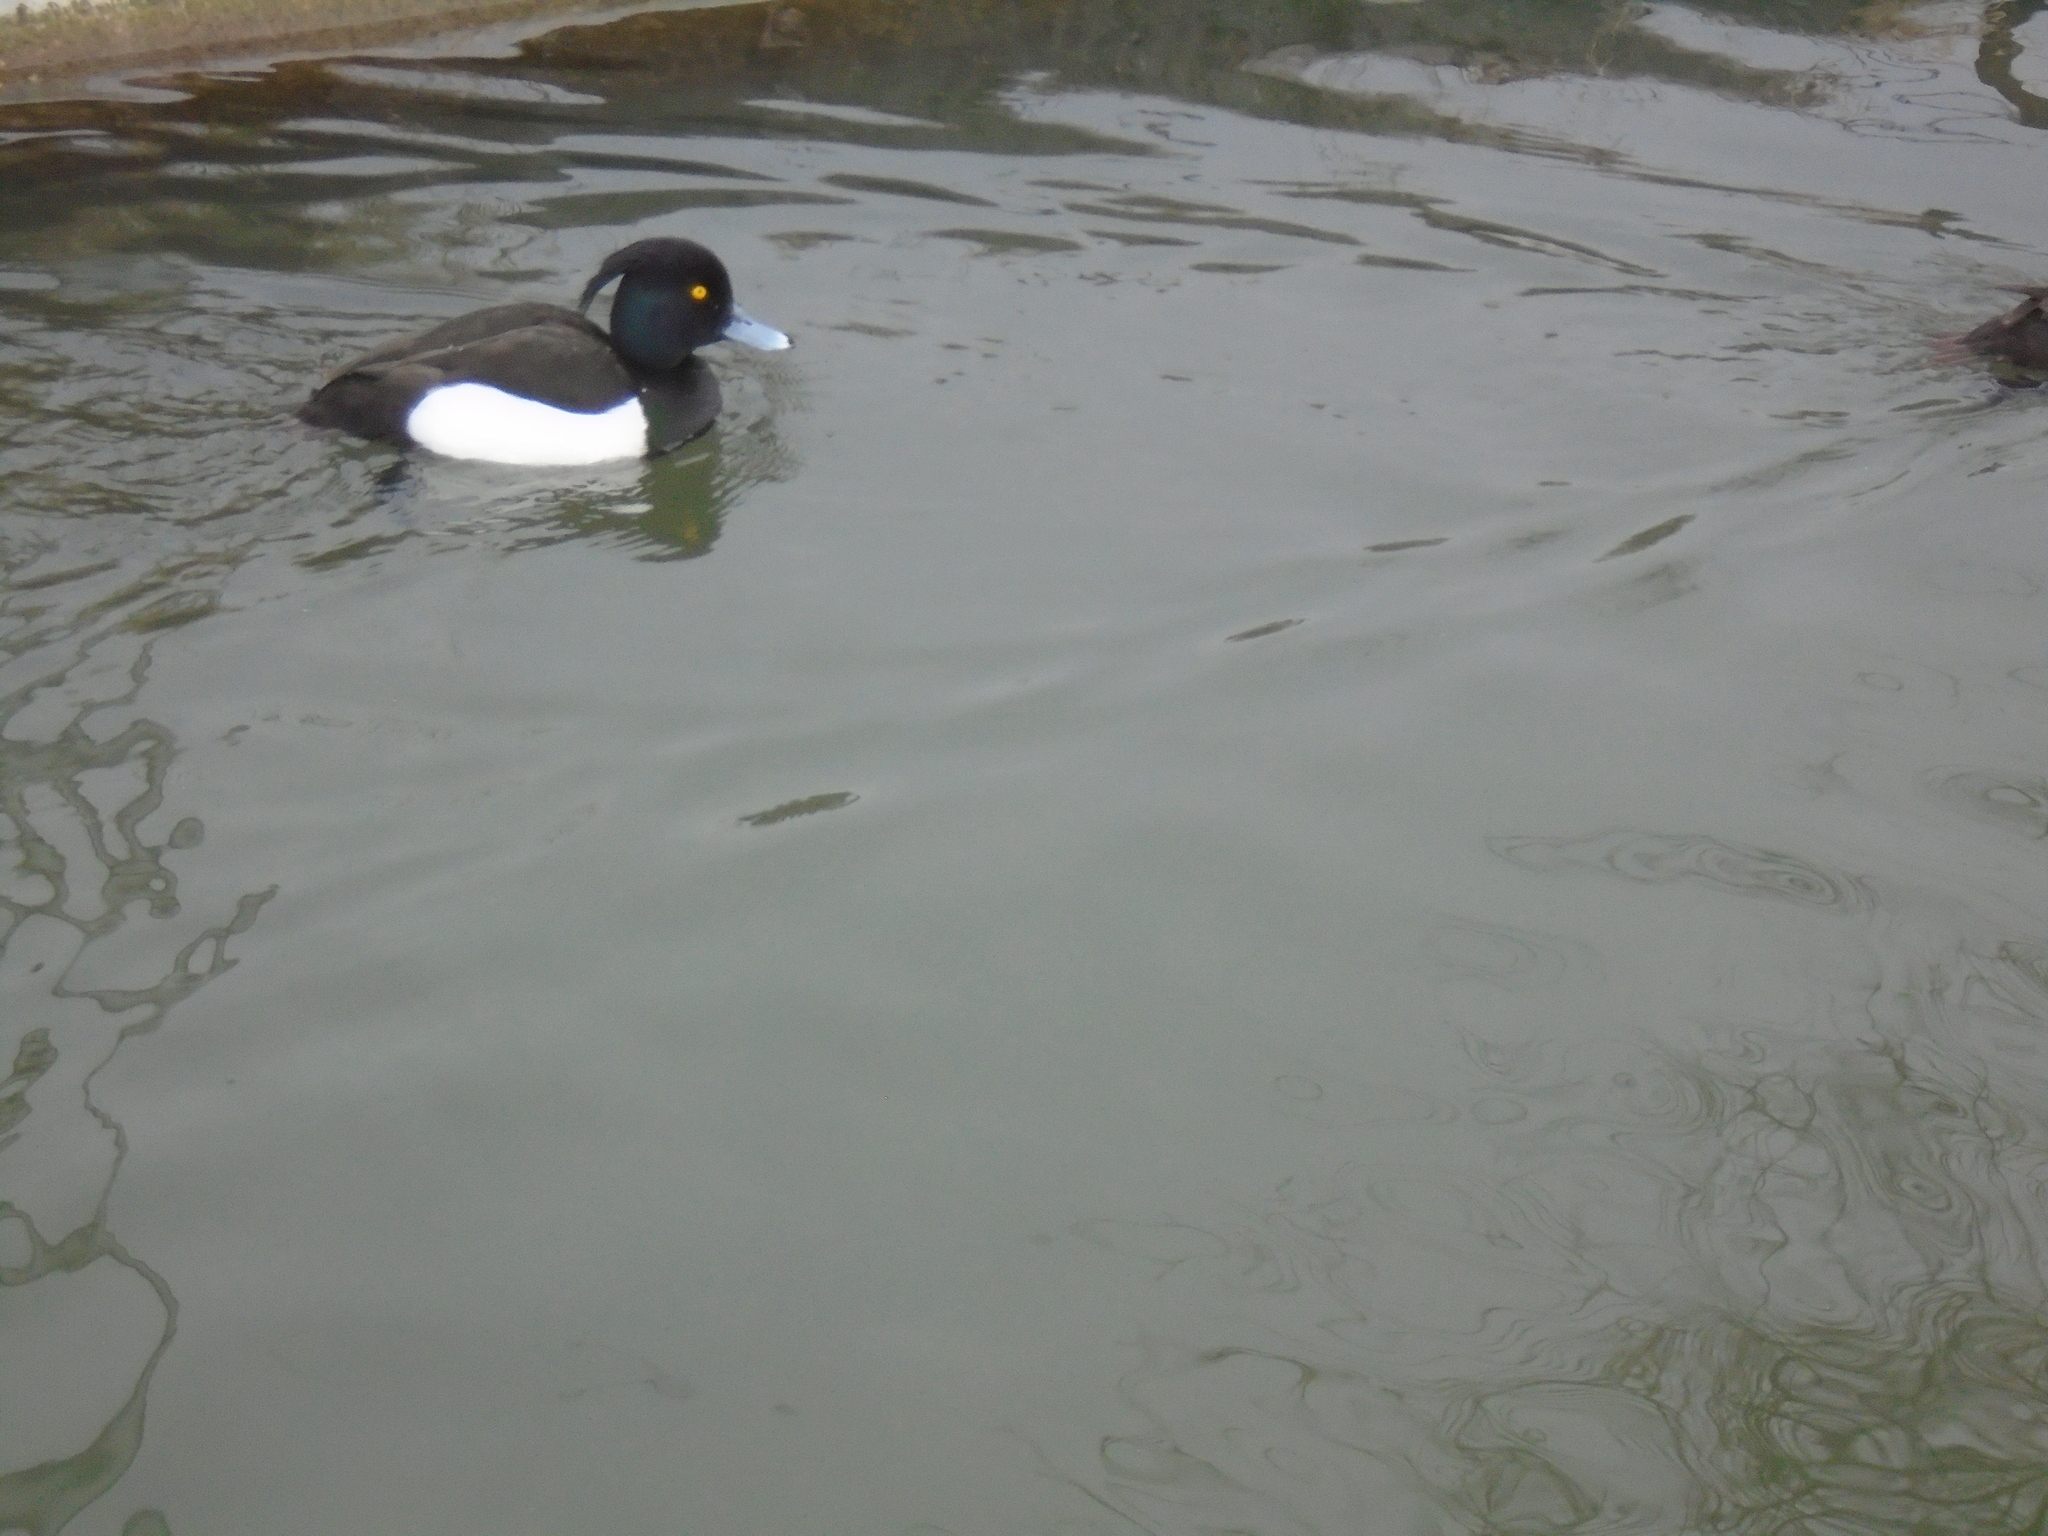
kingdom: Animalia
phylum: Chordata
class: Aves
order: Anseriformes
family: Anatidae
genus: Aythya
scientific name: Aythya fuligula
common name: Tufted duck
